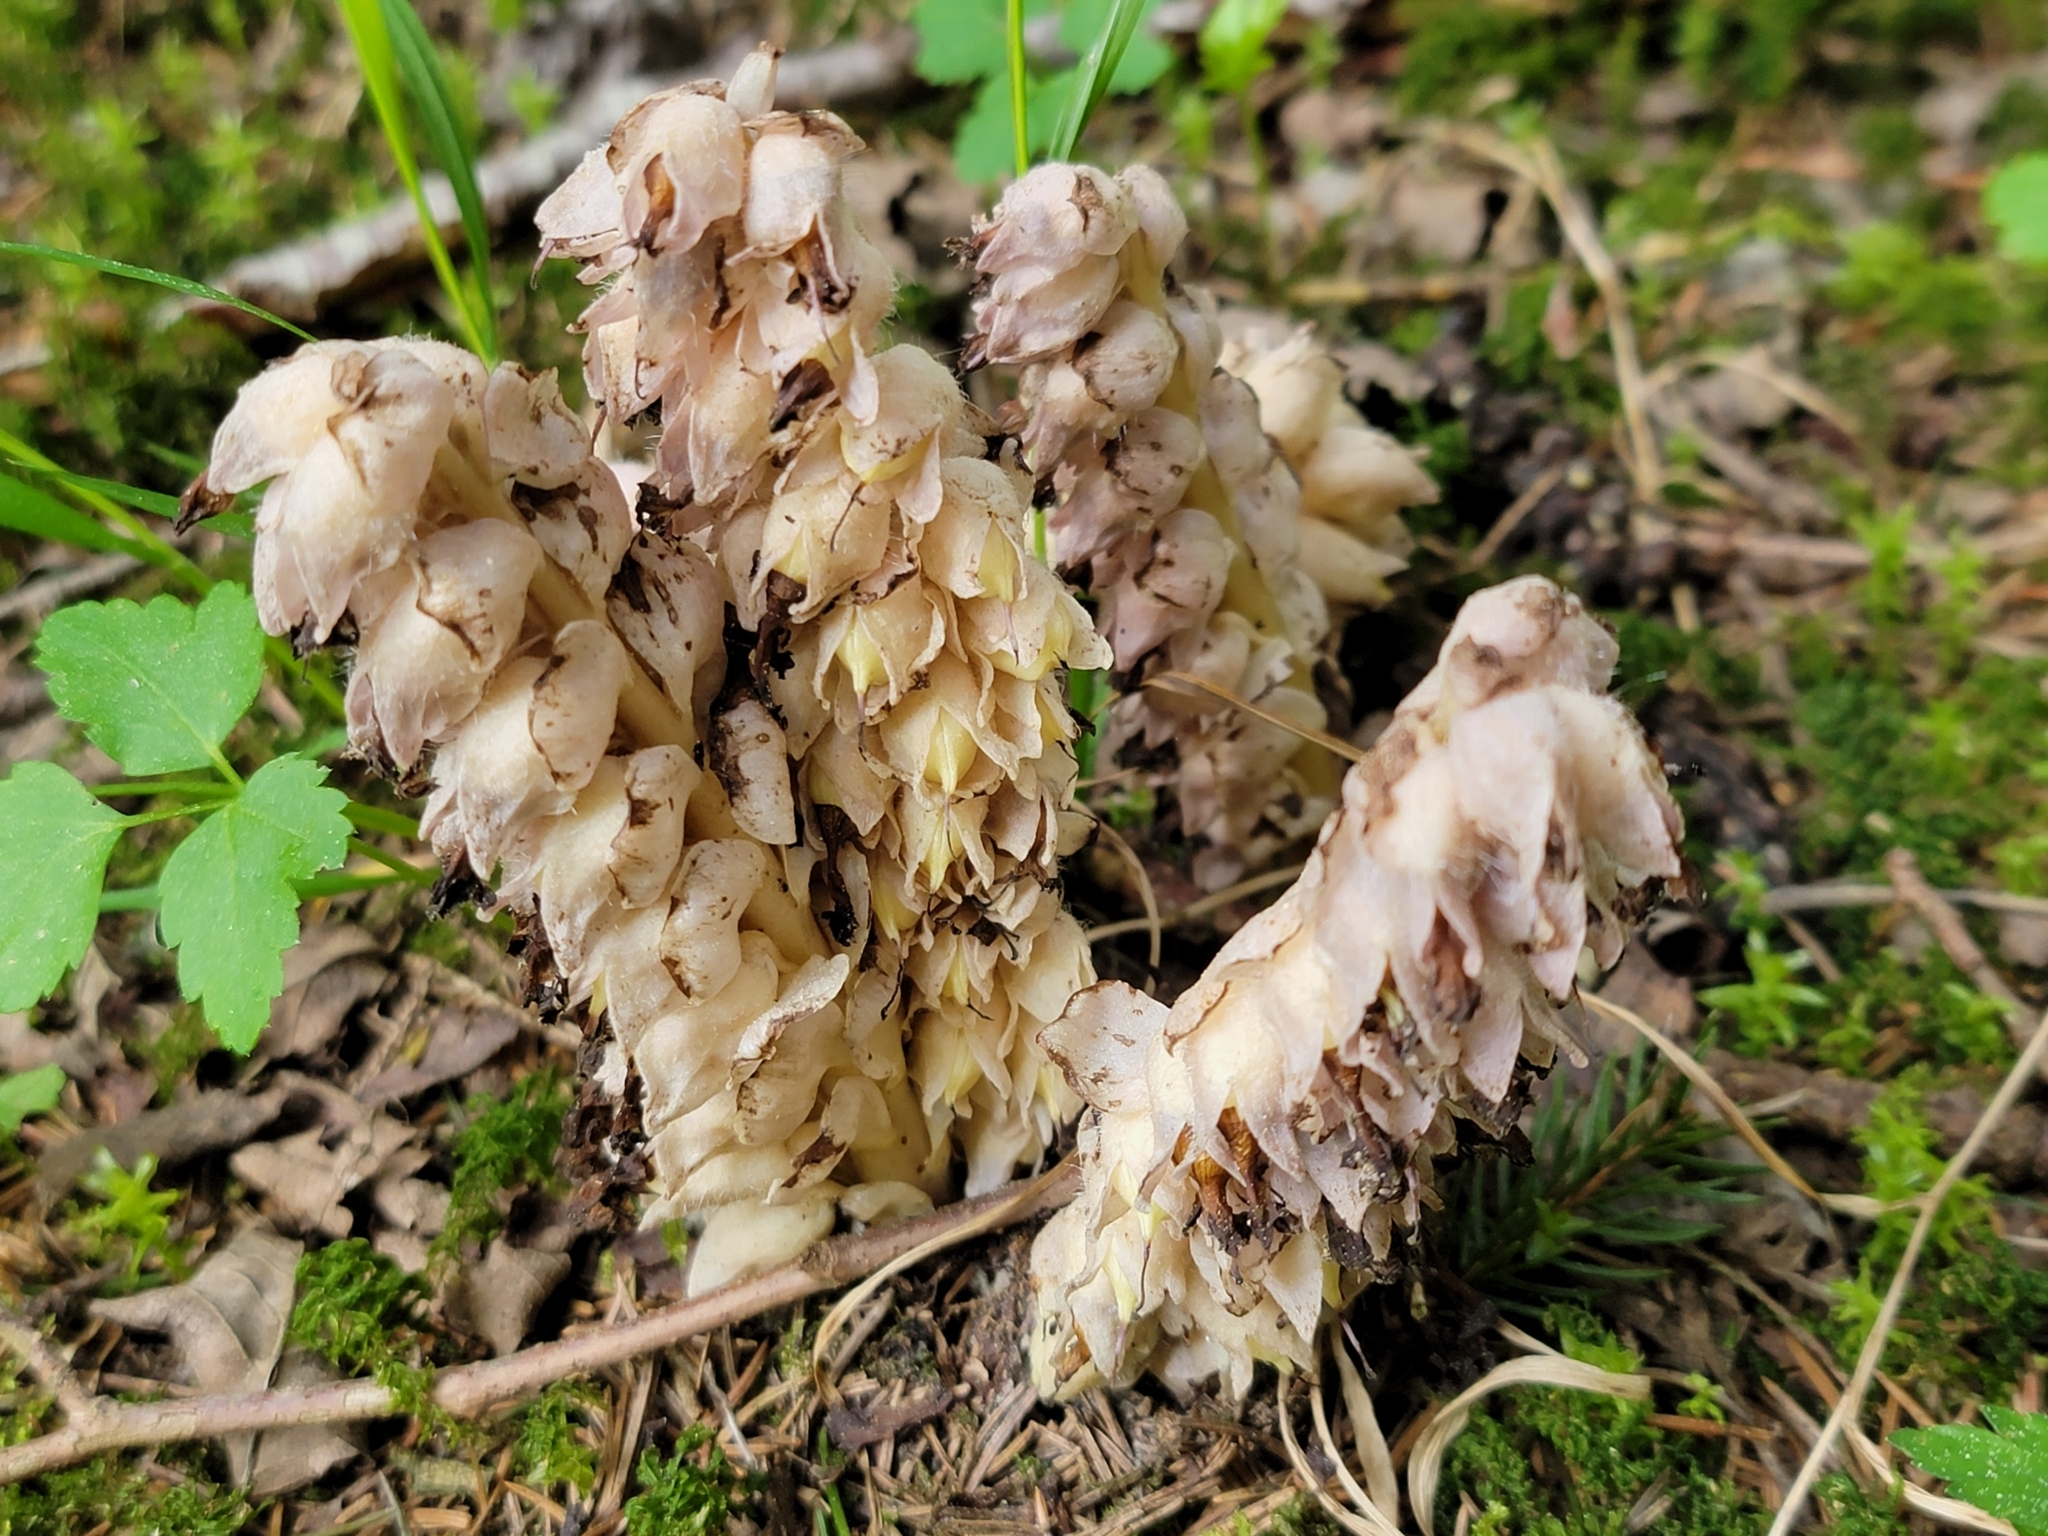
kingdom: Plantae
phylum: Tracheophyta
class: Magnoliopsida
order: Lamiales
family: Orobanchaceae
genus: Lathraea
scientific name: Lathraea squamaria
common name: Toothwort
